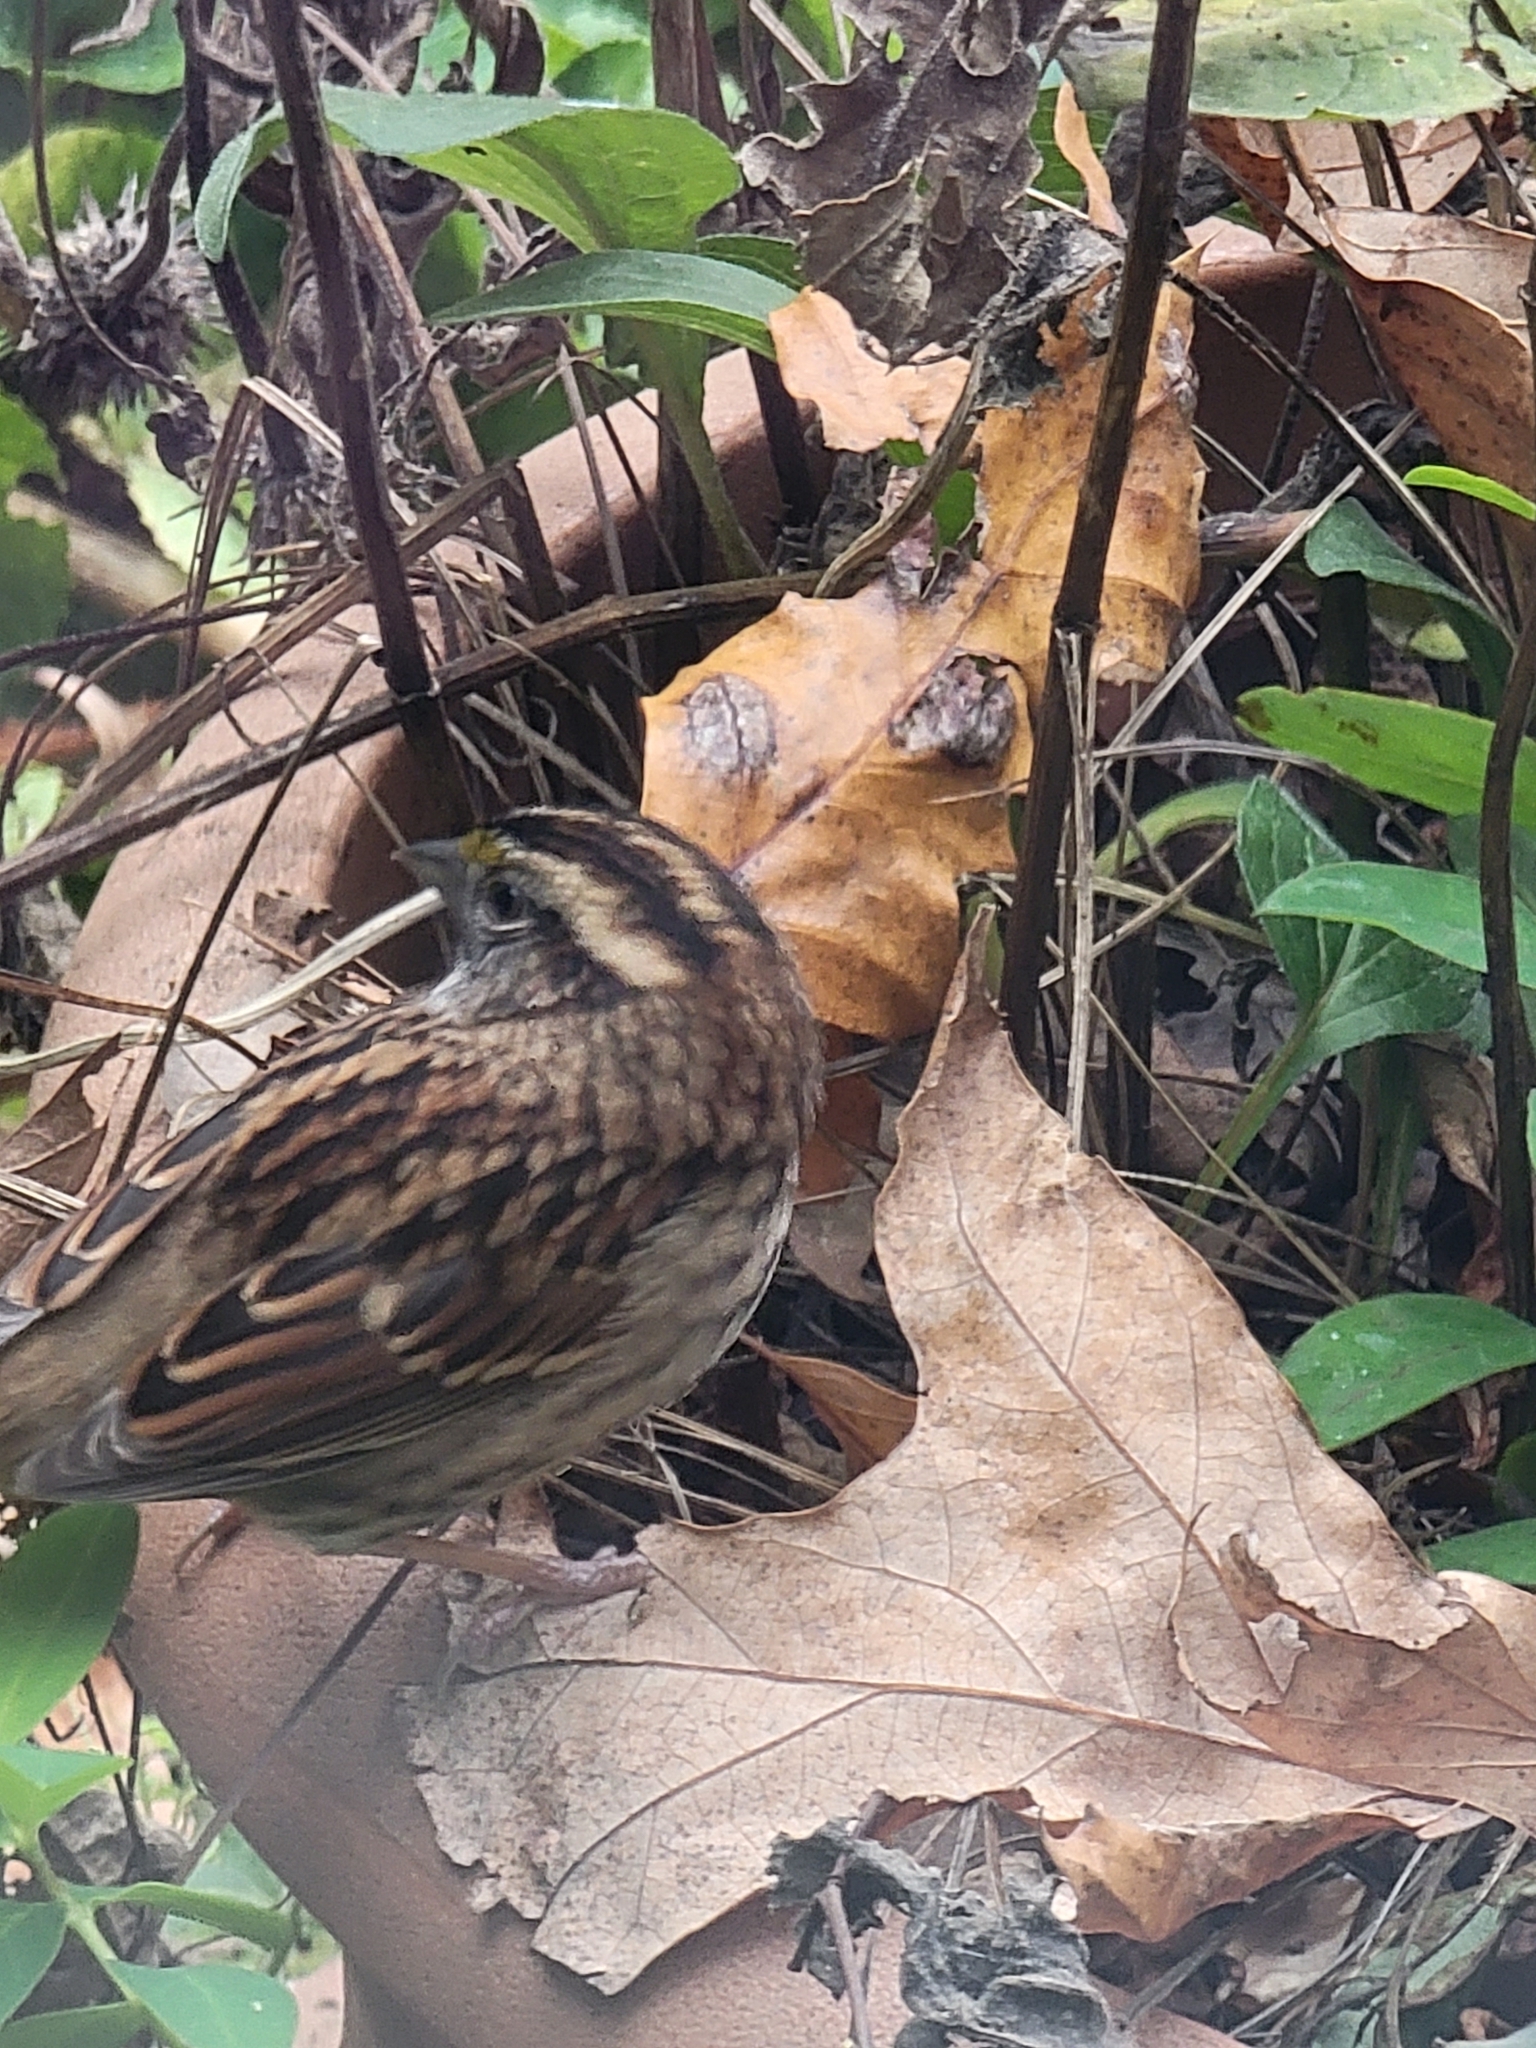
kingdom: Animalia
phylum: Chordata
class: Aves
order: Passeriformes
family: Passerellidae
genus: Zonotrichia
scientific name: Zonotrichia albicollis
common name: White-throated sparrow
